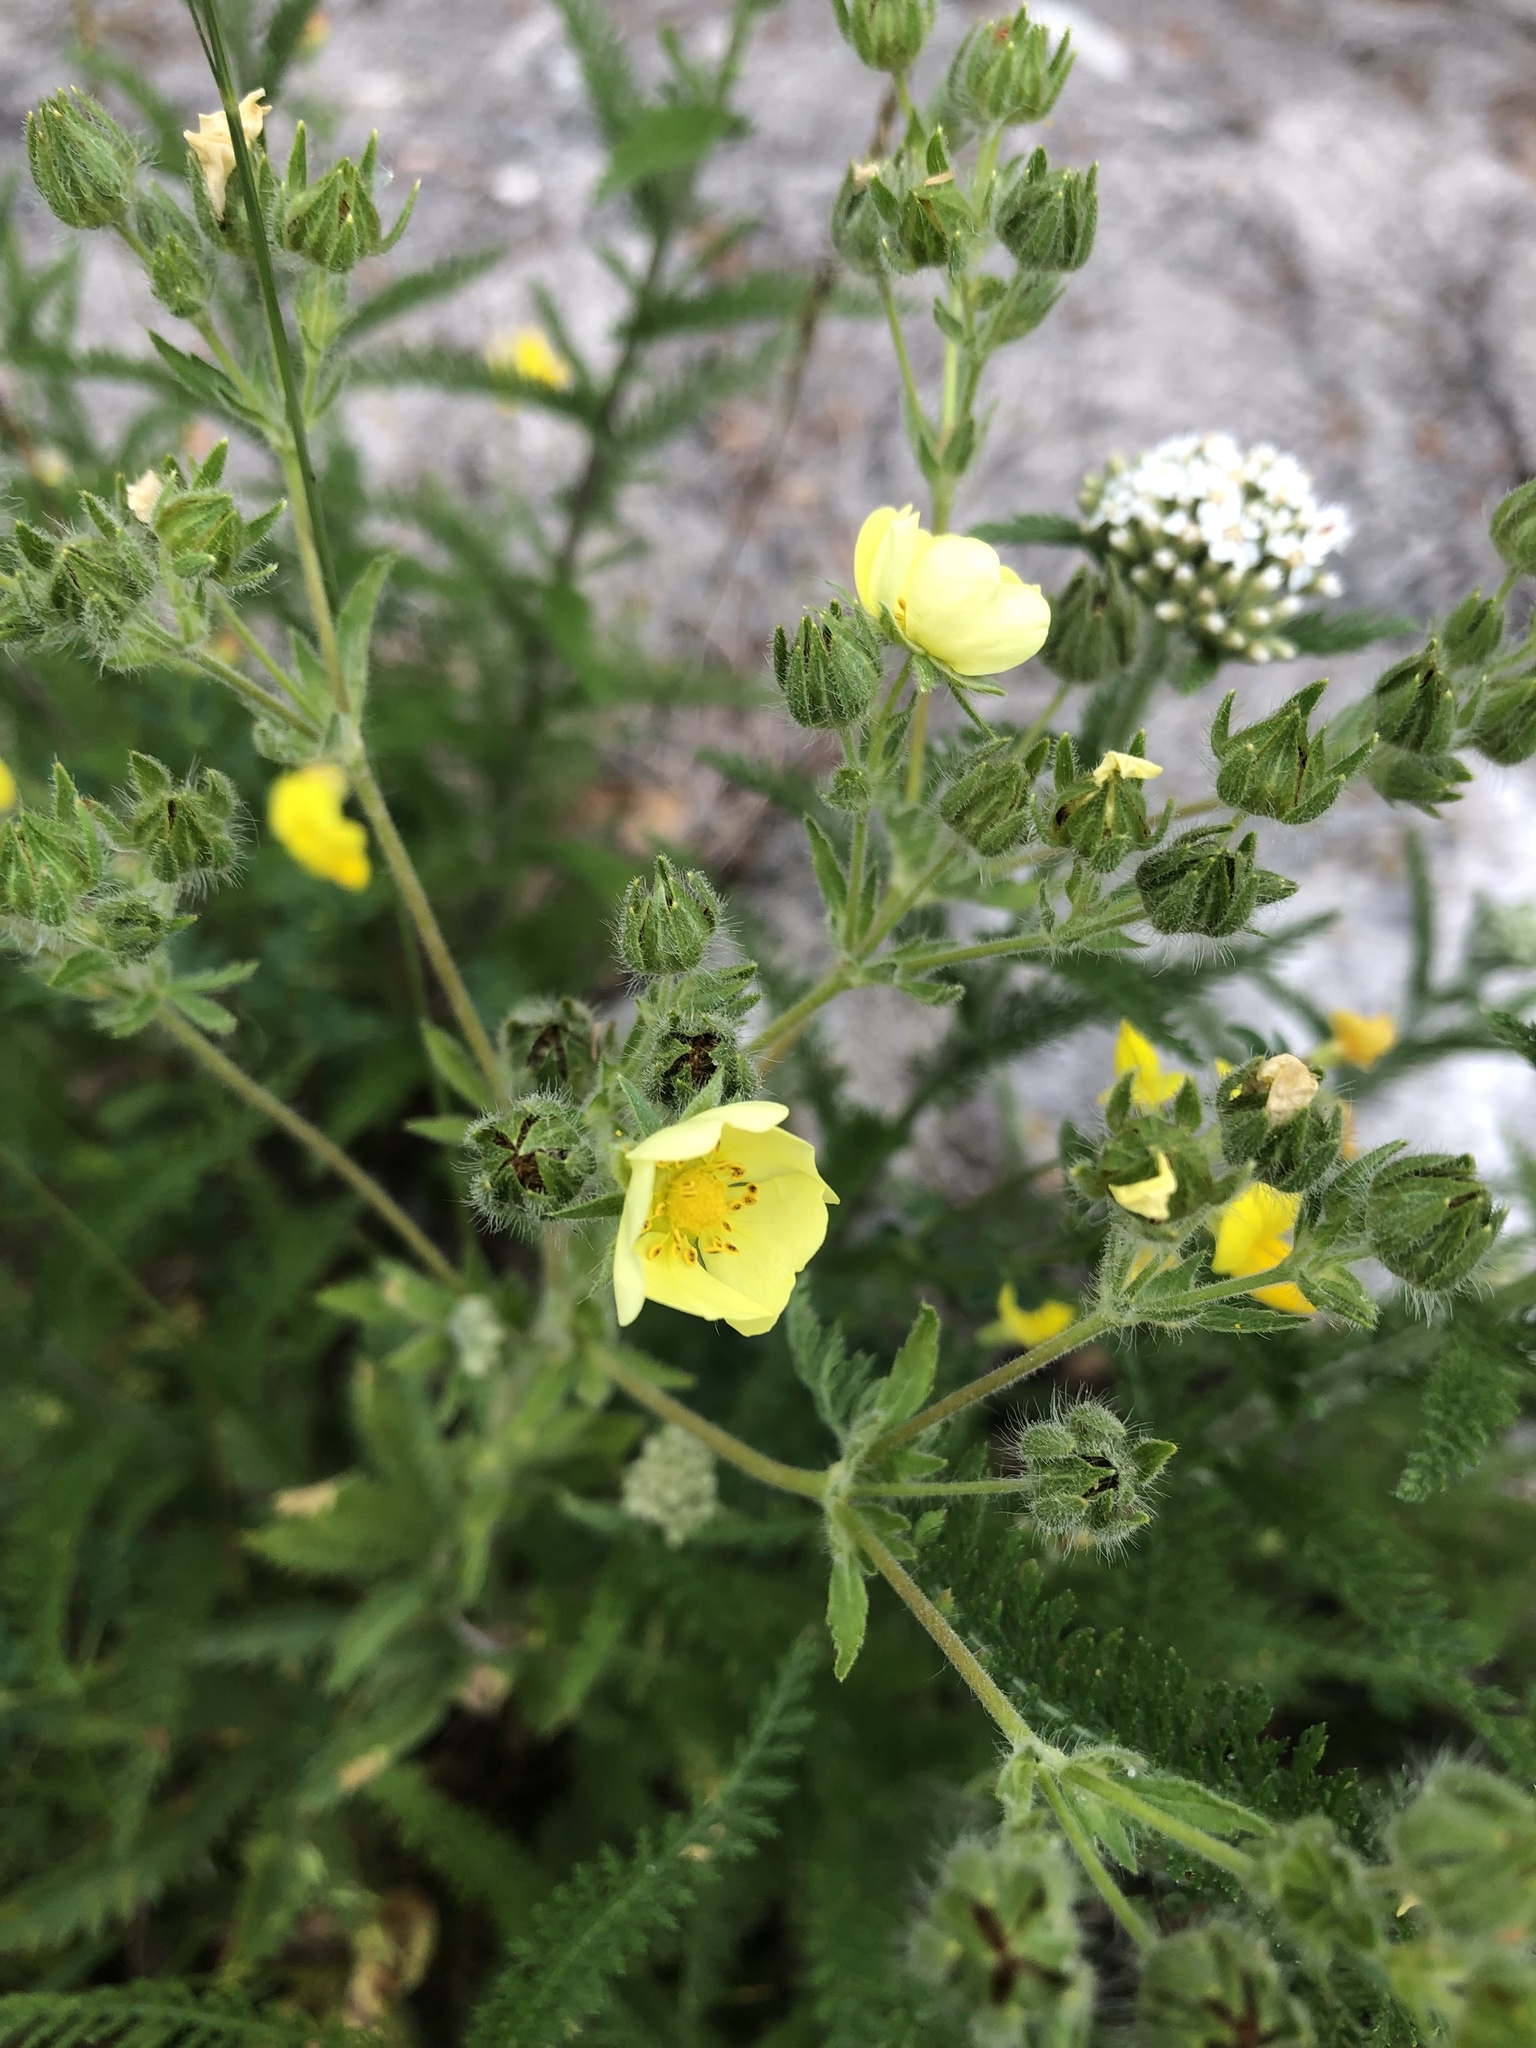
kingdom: Plantae
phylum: Tracheophyta
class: Magnoliopsida
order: Rosales
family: Rosaceae
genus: Potentilla
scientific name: Potentilla recta
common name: Sulphur cinquefoil
